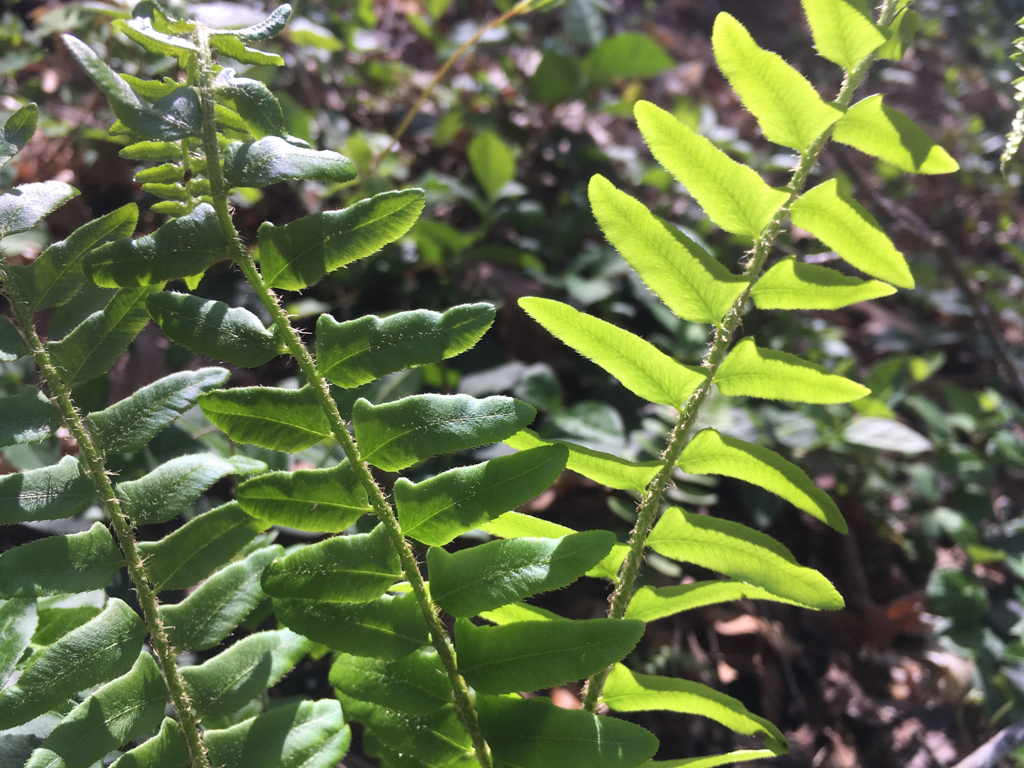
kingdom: Plantae
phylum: Tracheophyta
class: Polypodiopsida
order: Polypodiales
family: Dryopteridaceae
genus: Polystichum
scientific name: Polystichum acrostichoides
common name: Christmas fern
